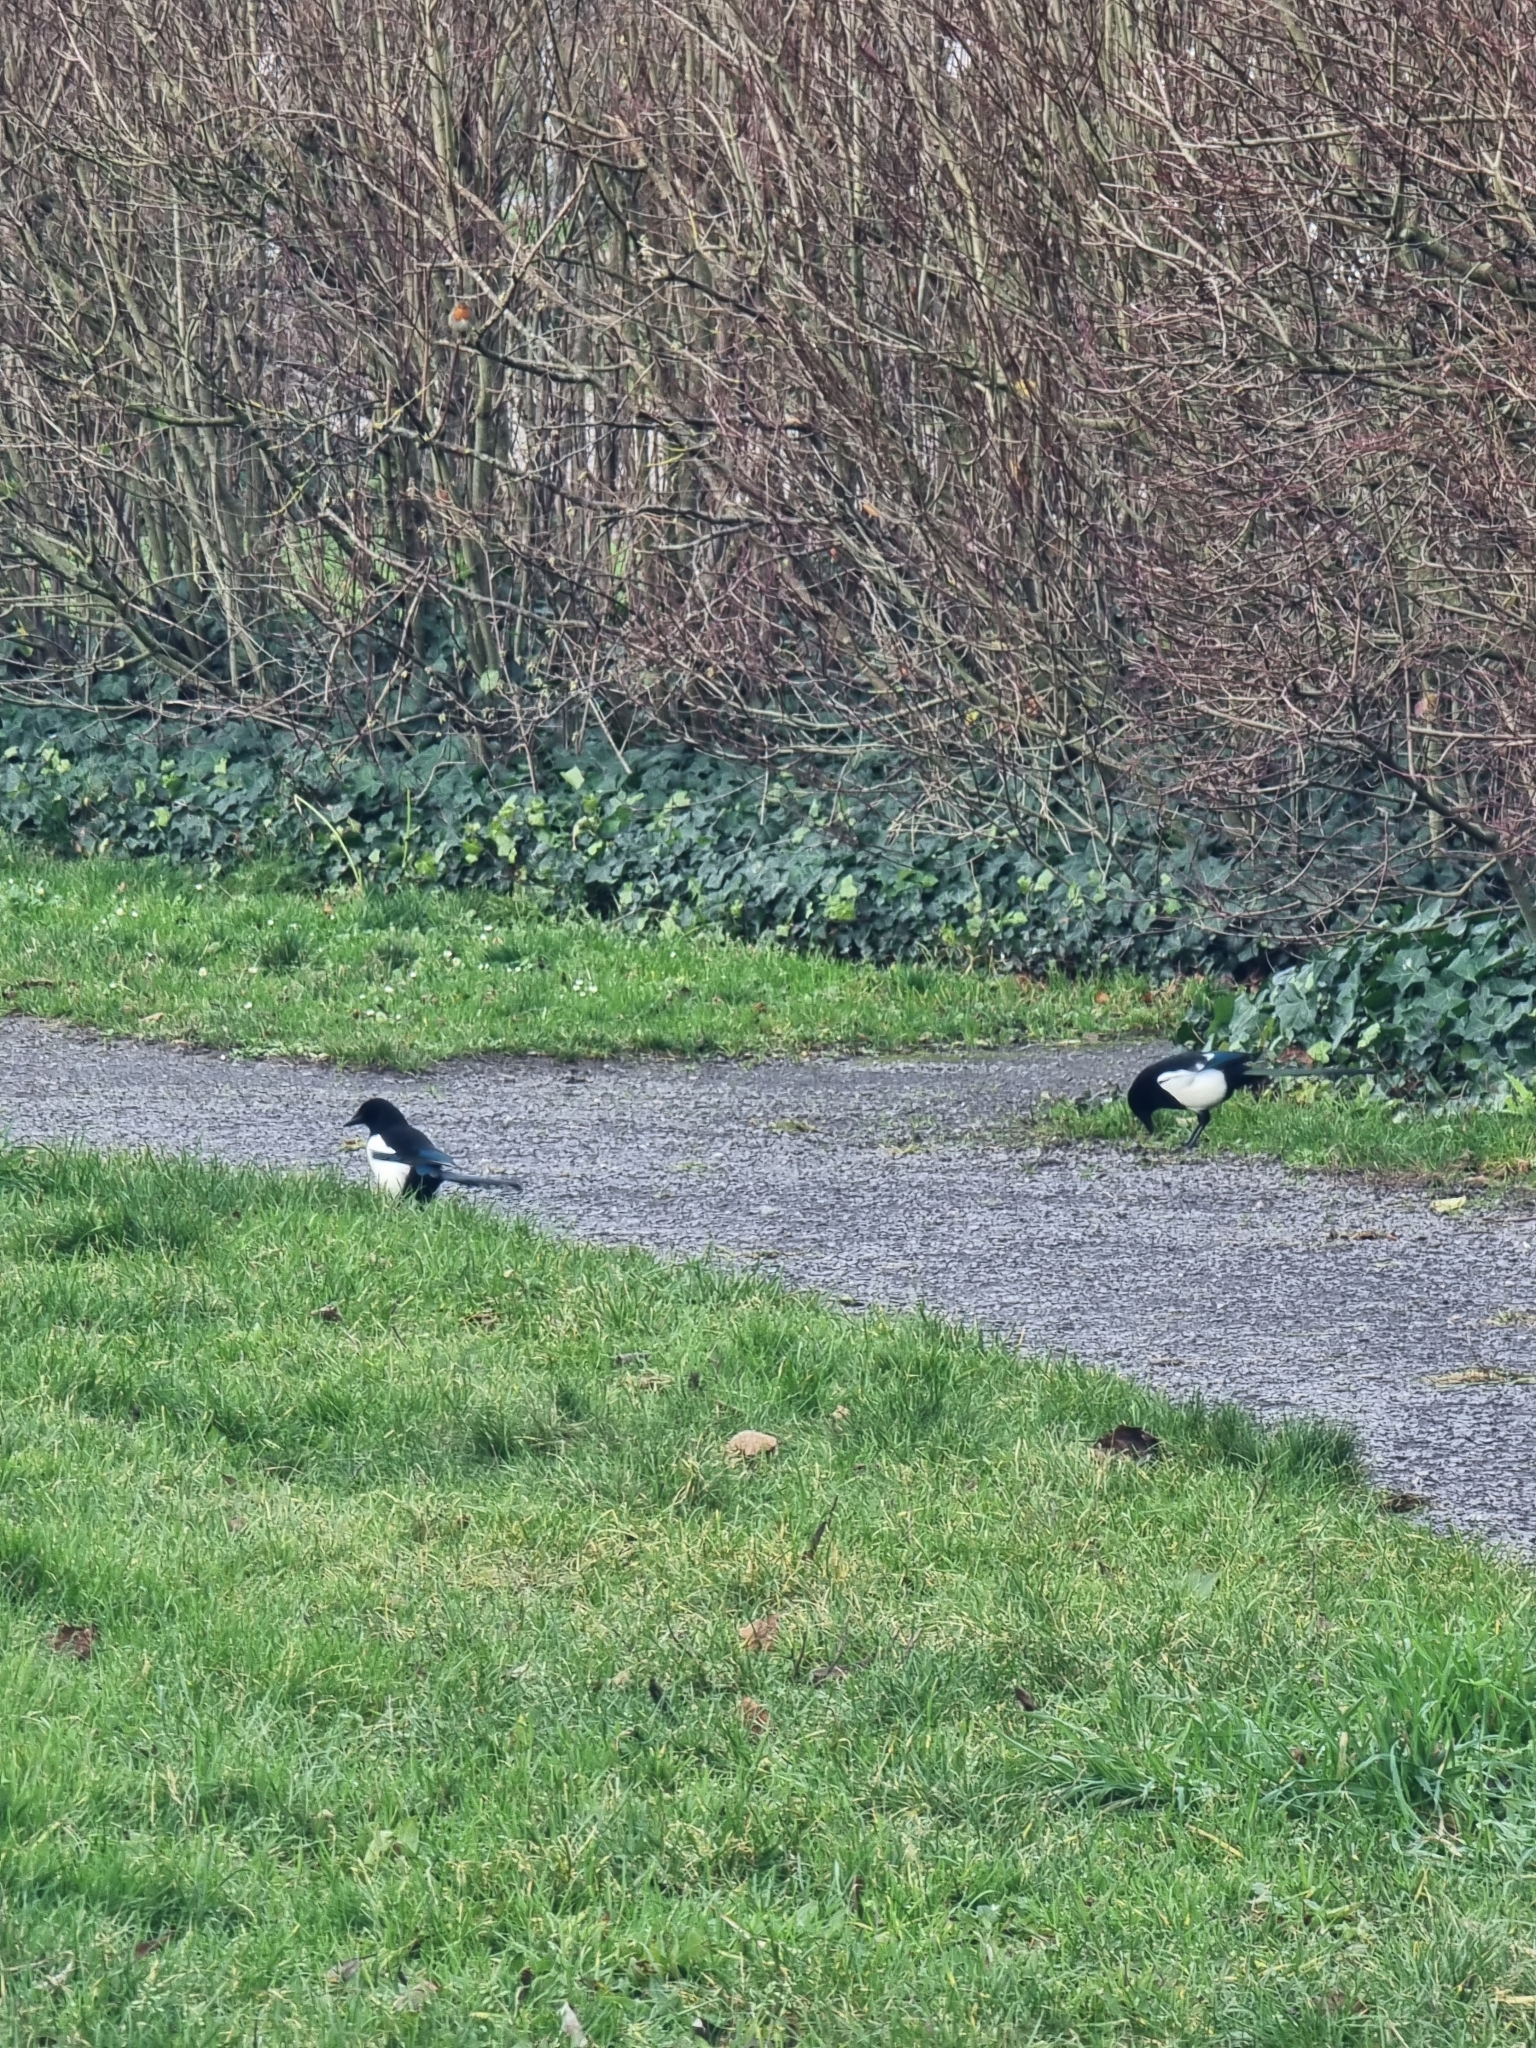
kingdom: Animalia
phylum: Chordata
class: Aves
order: Passeriformes
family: Corvidae
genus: Pica
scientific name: Pica pica
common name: Eurasian magpie
